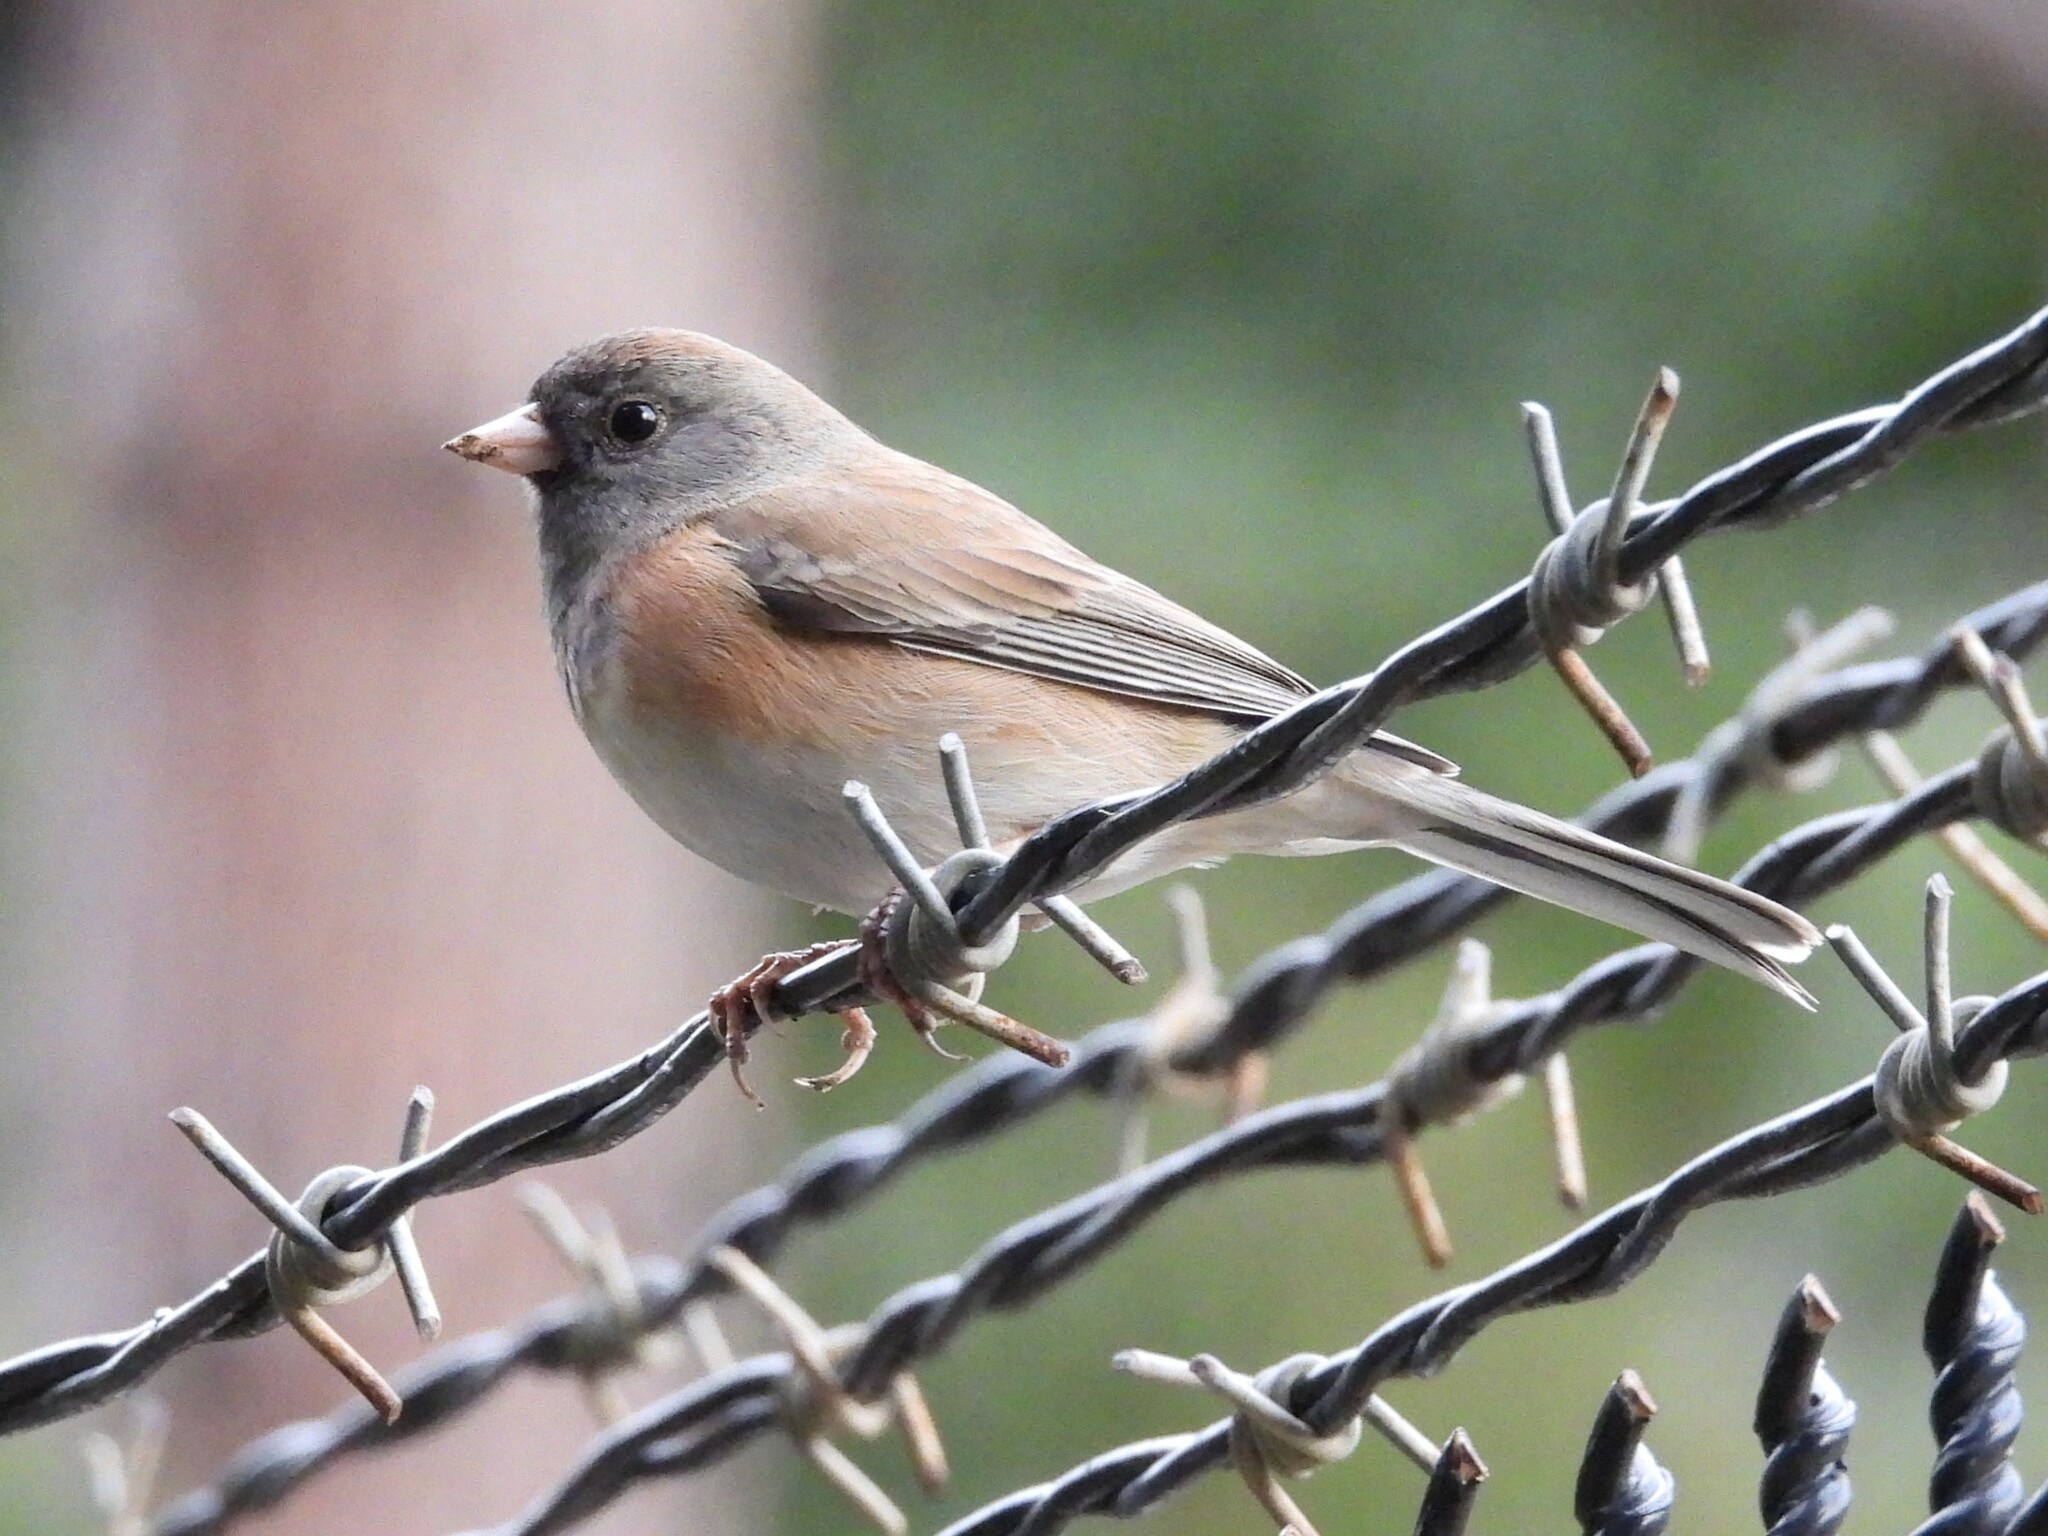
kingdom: Animalia
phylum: Chordata
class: Aves
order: Passeriformes
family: Passerellidae
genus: Junco
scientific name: Junco hyemalis
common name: Dark-eyed junco
